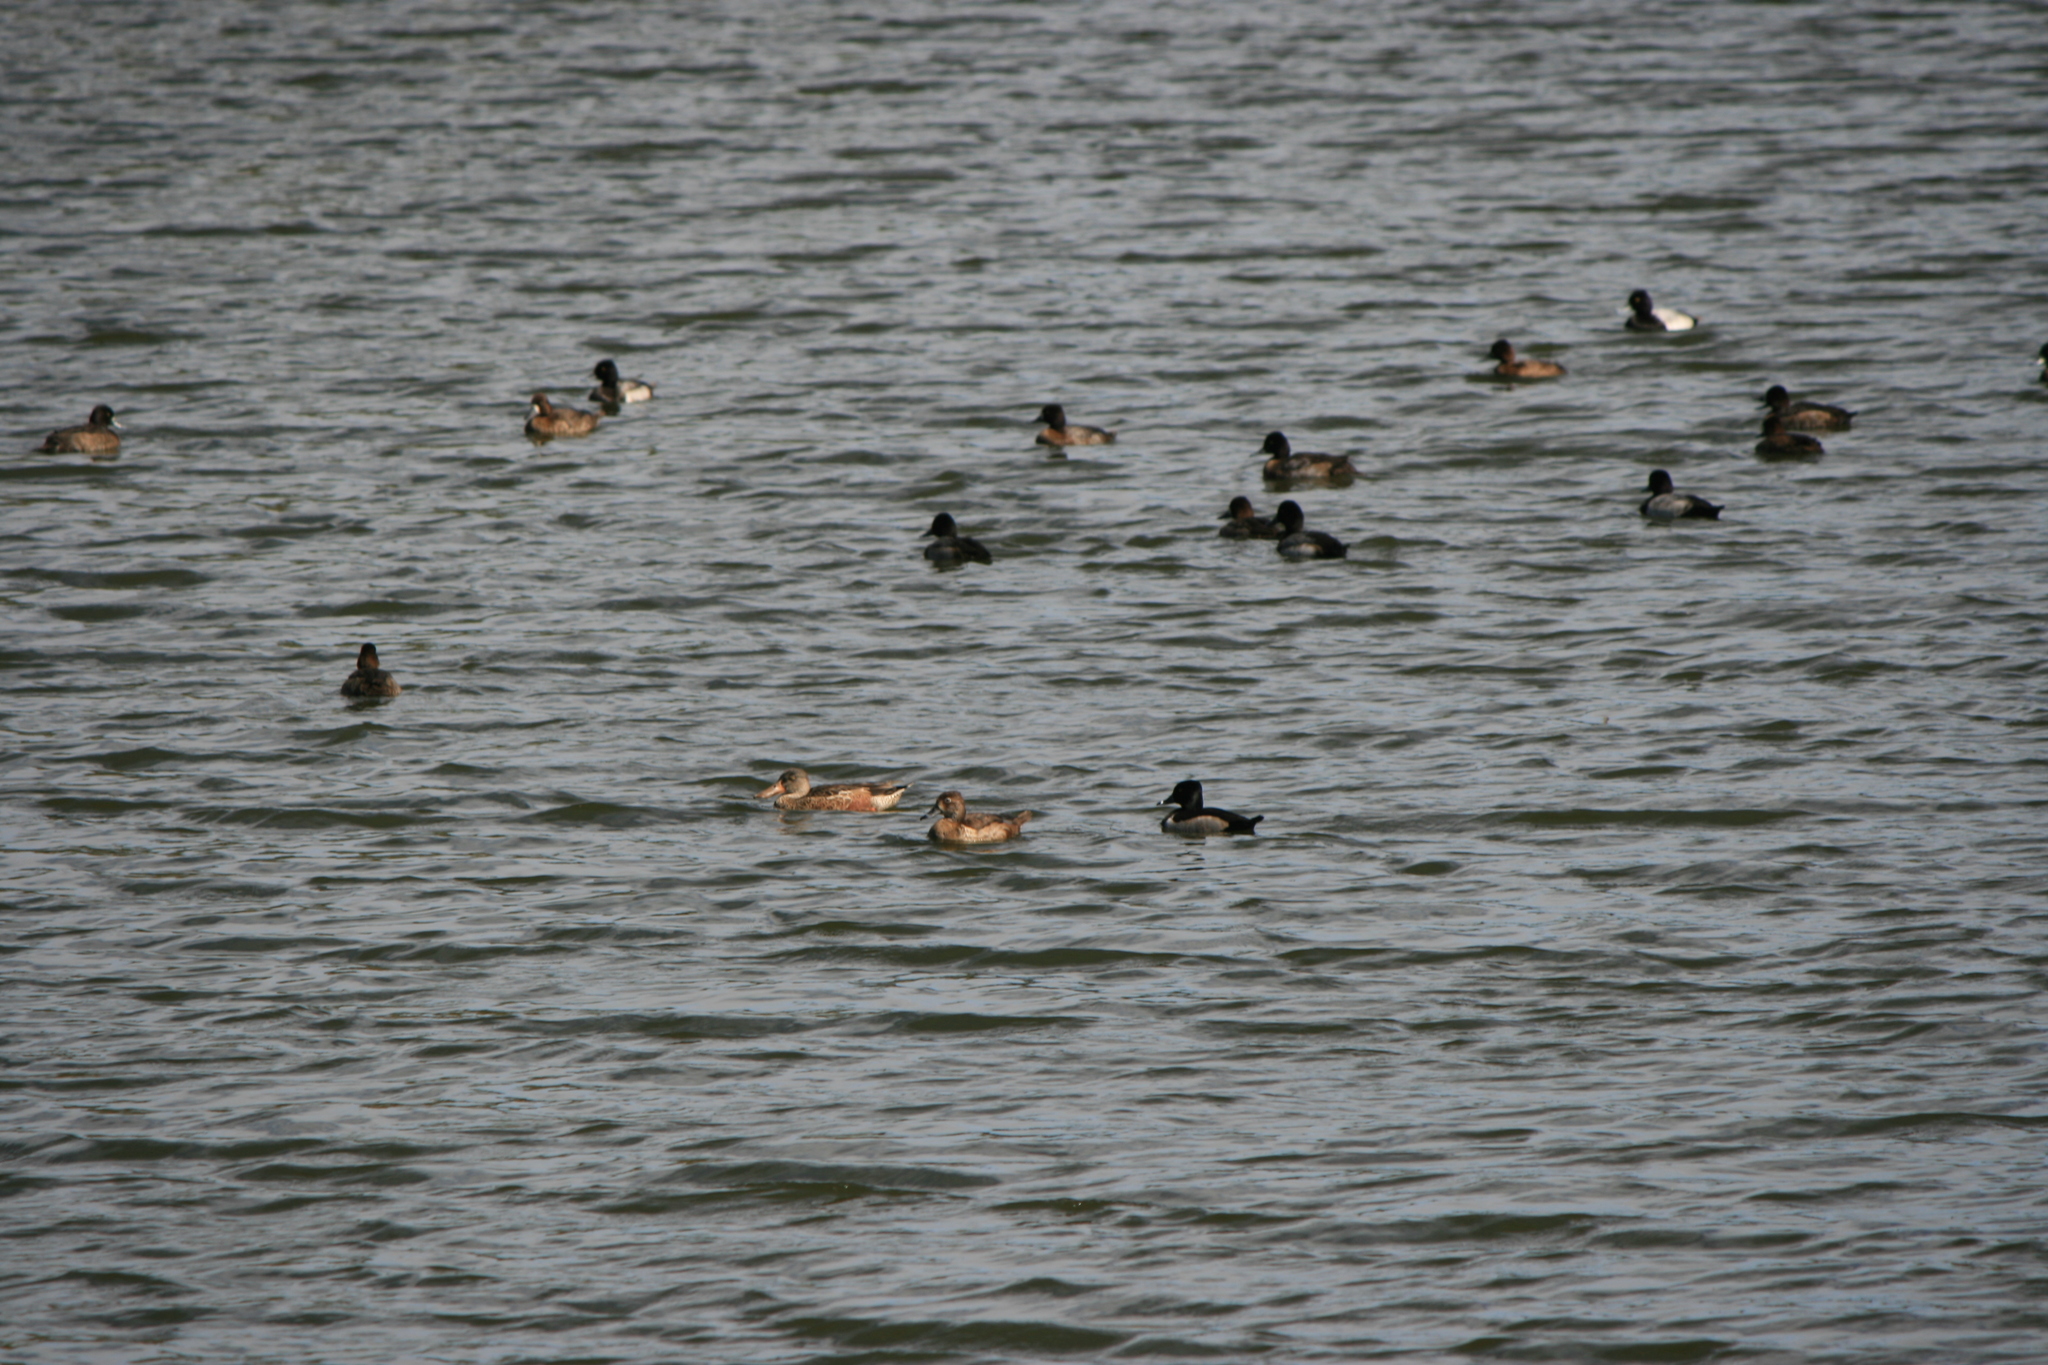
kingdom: Animalia
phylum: Chordata
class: Aves
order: Anseriformes
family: Anatidae
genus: Aythya
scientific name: Aythya collaris
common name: Ring-necked duck
